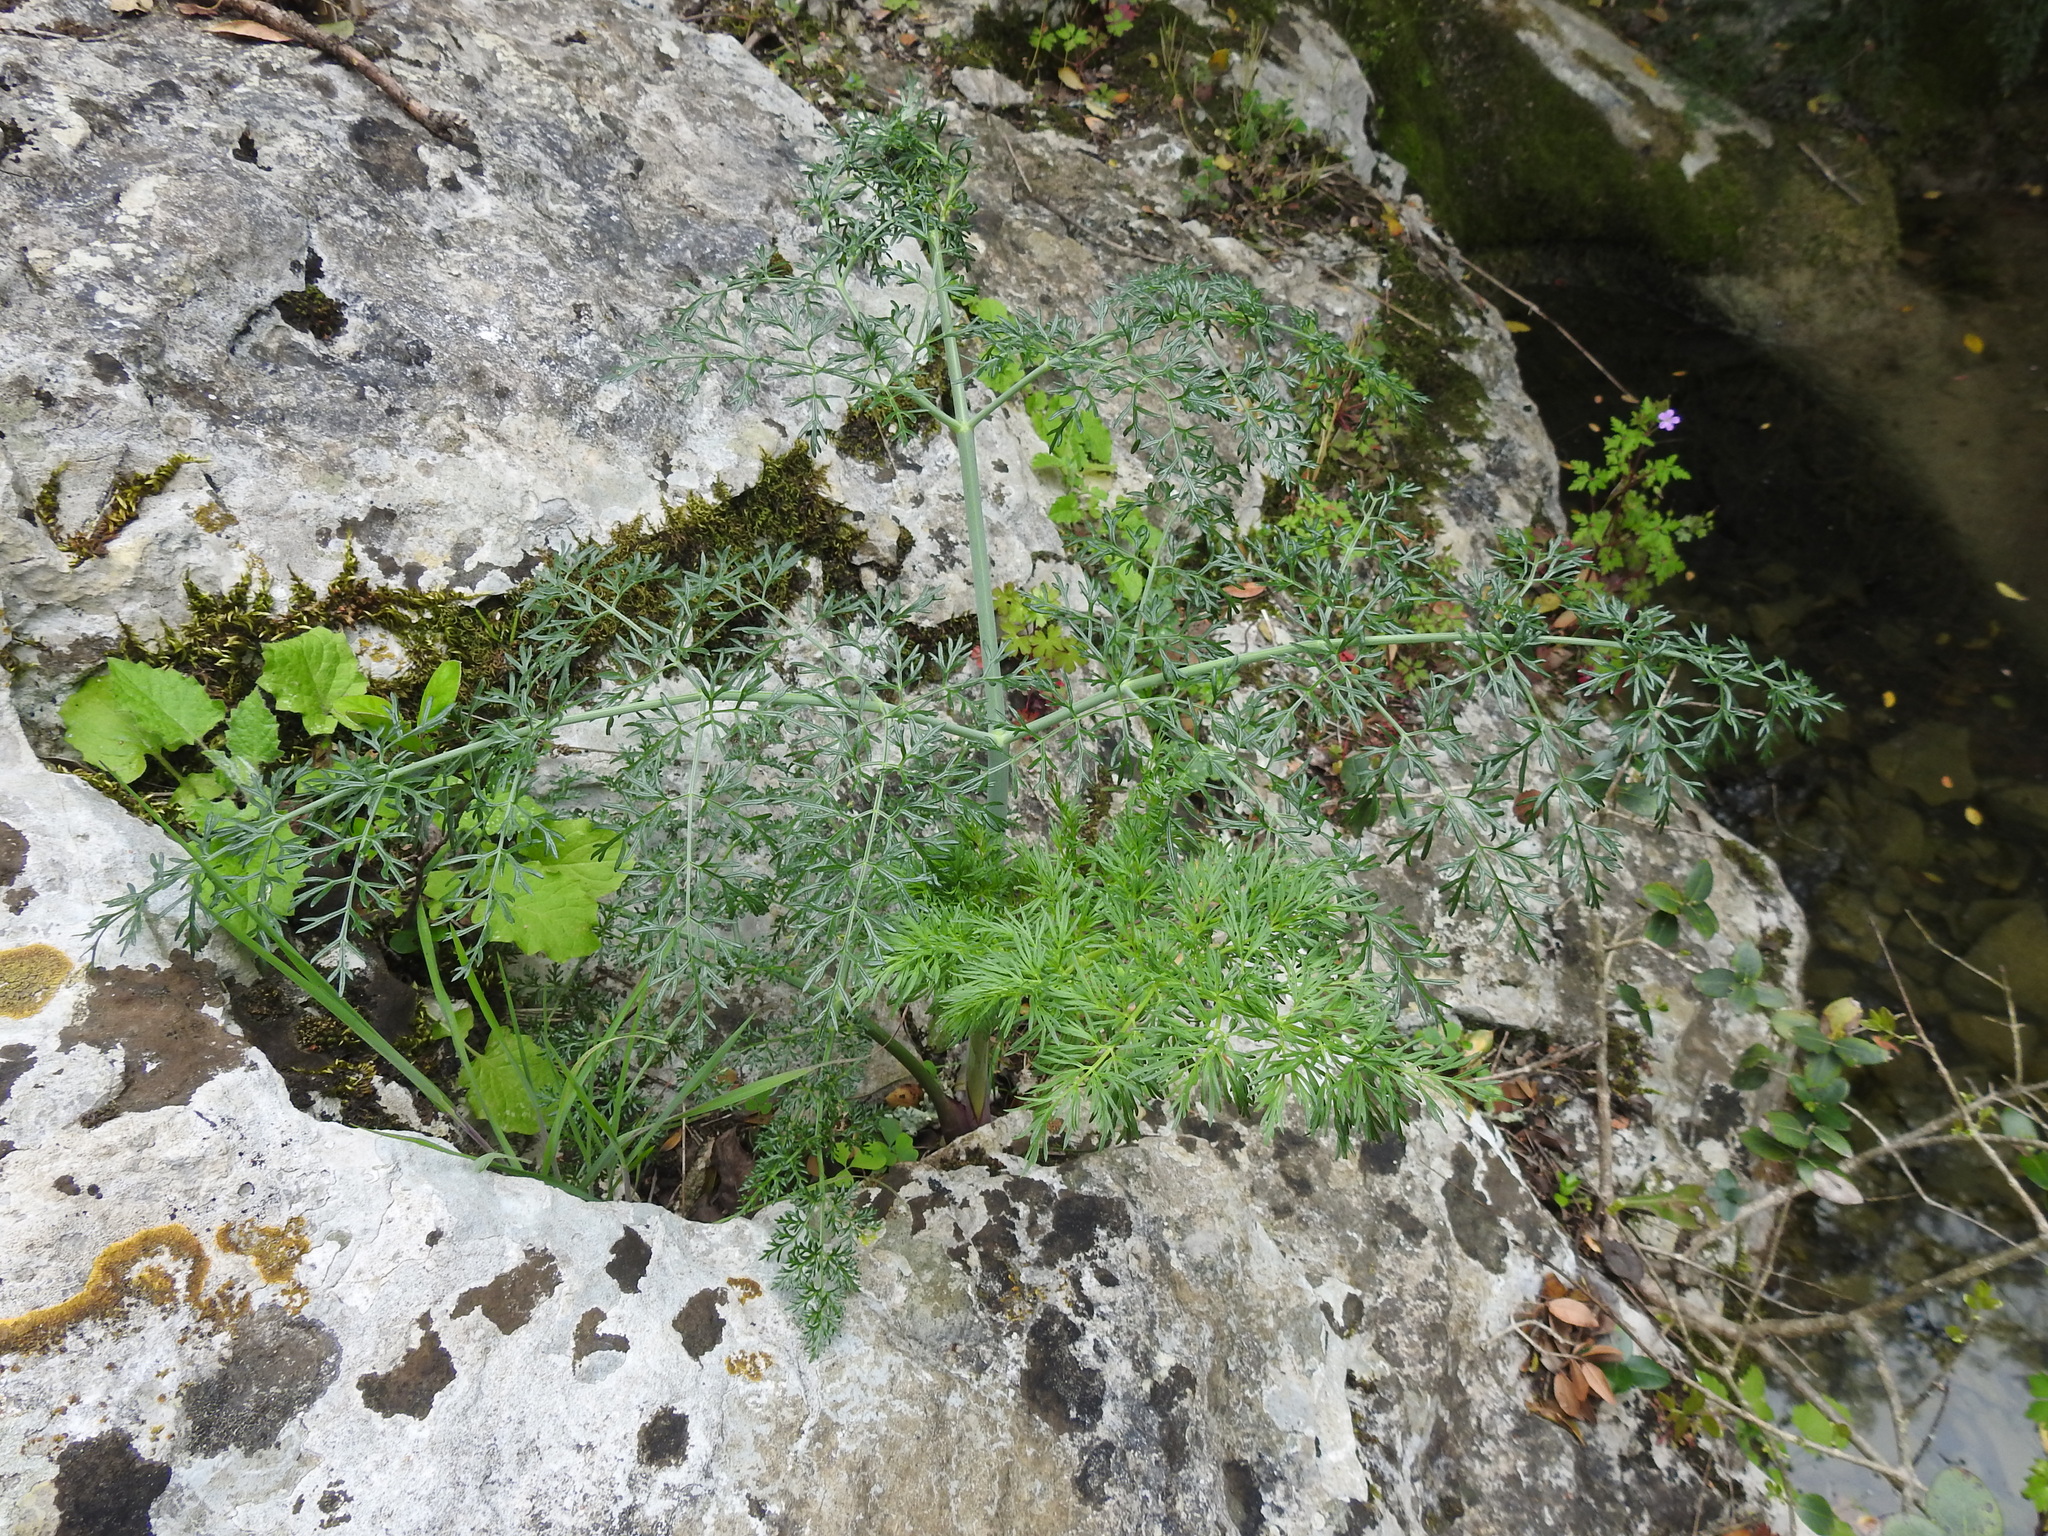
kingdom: Plantae
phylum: Tracheophyta
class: Magnoliopsida
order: Apiales
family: Apiaceae
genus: Ferula
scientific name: Ferula glauca
